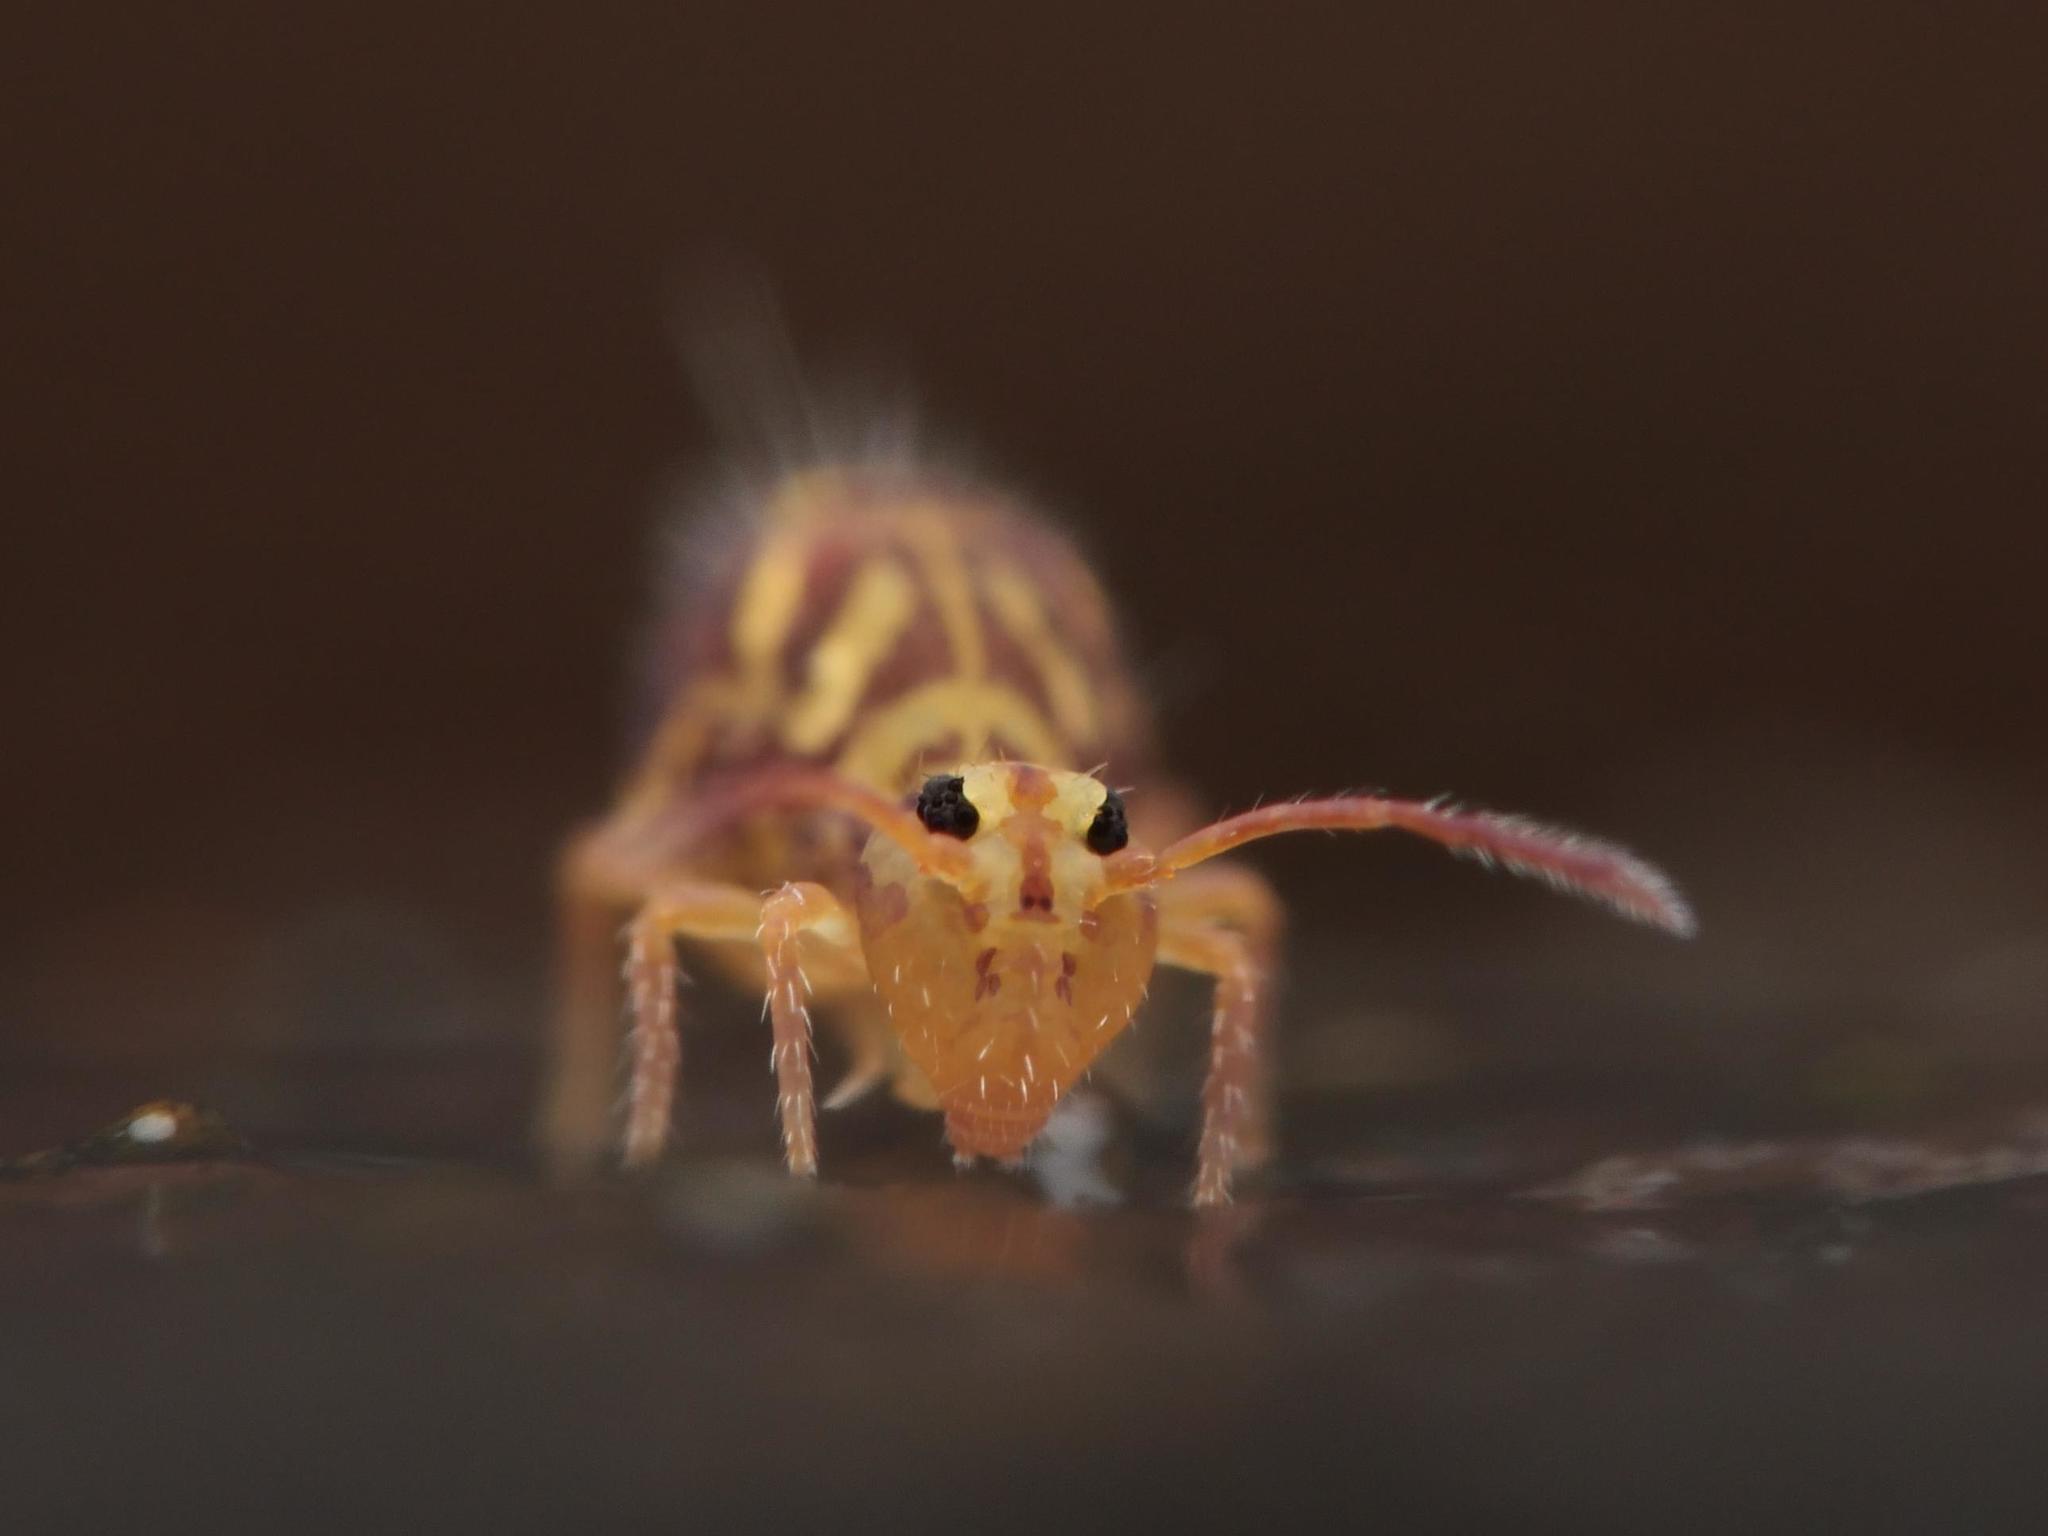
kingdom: Animalia
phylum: Arthropoda
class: Collembola
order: Symphypleona
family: Dicyrtomidae
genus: Dicyrtomina
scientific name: Dicyrtomina ornata
